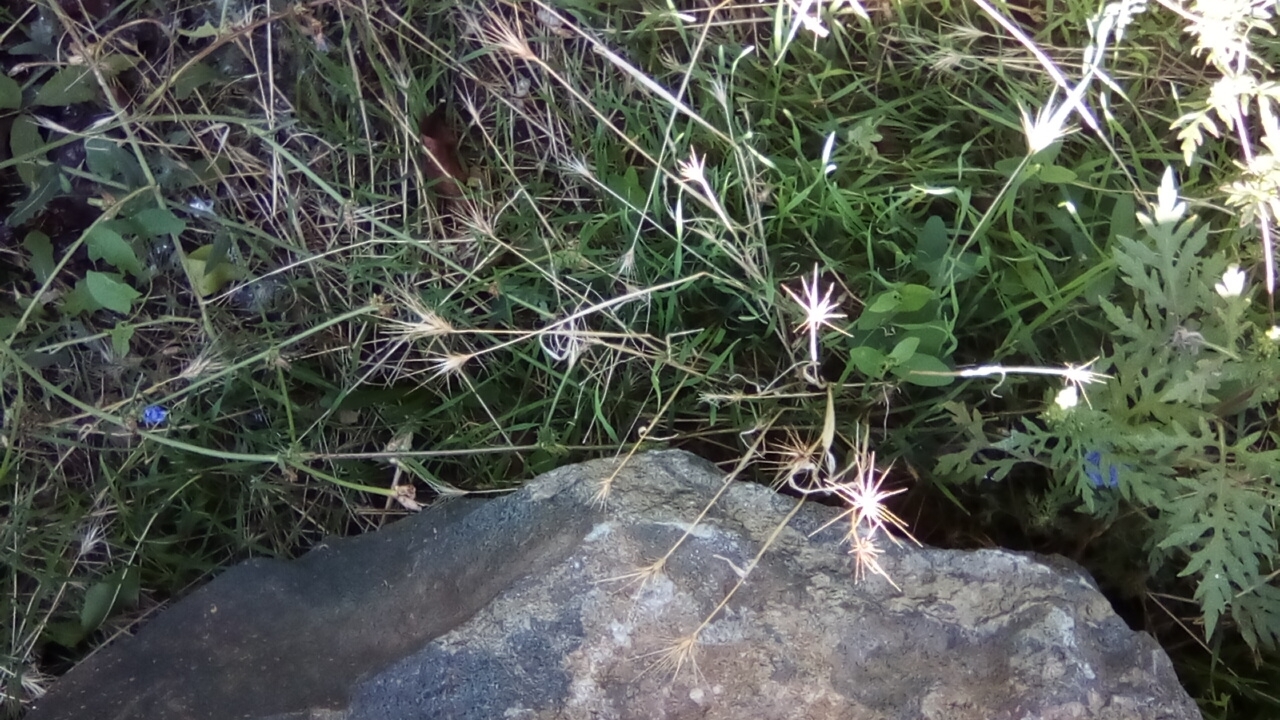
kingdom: Plantae
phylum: Tracheophyta
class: Liliopsida
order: Poales
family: Poaceae
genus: Hordeum
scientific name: Hordeum murinum
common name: Wall barley
